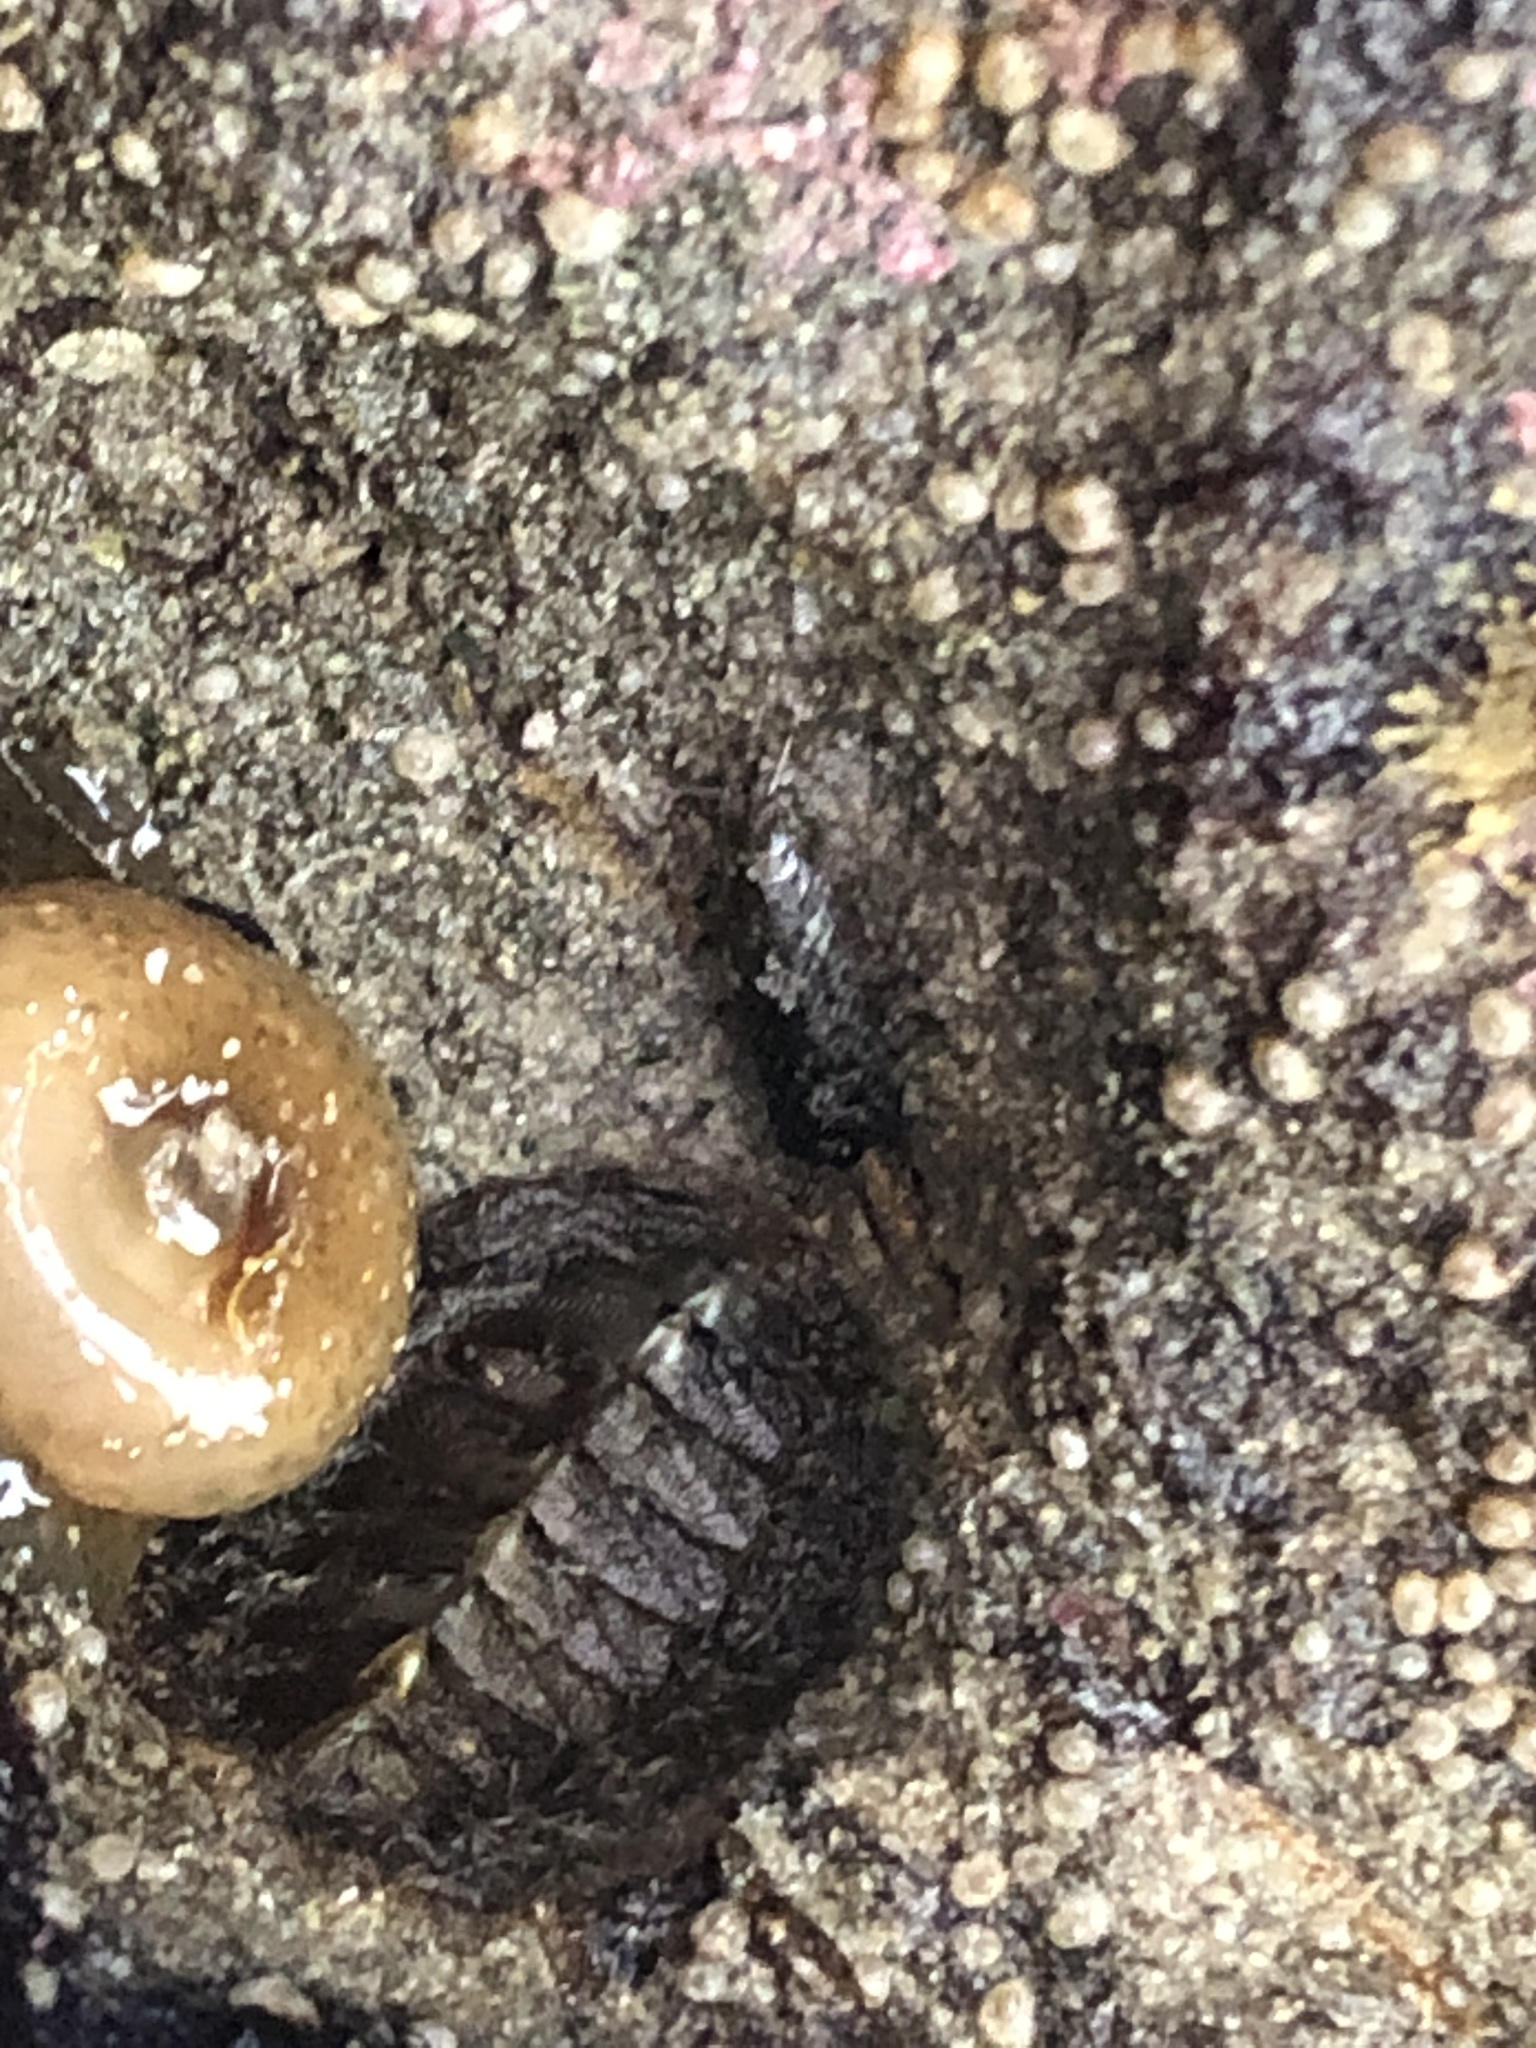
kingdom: Animalia
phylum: Arthropoda
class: Malacostraca
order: Isopoda
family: Ligiidae
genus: Ligia
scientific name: Ligia pallasii
